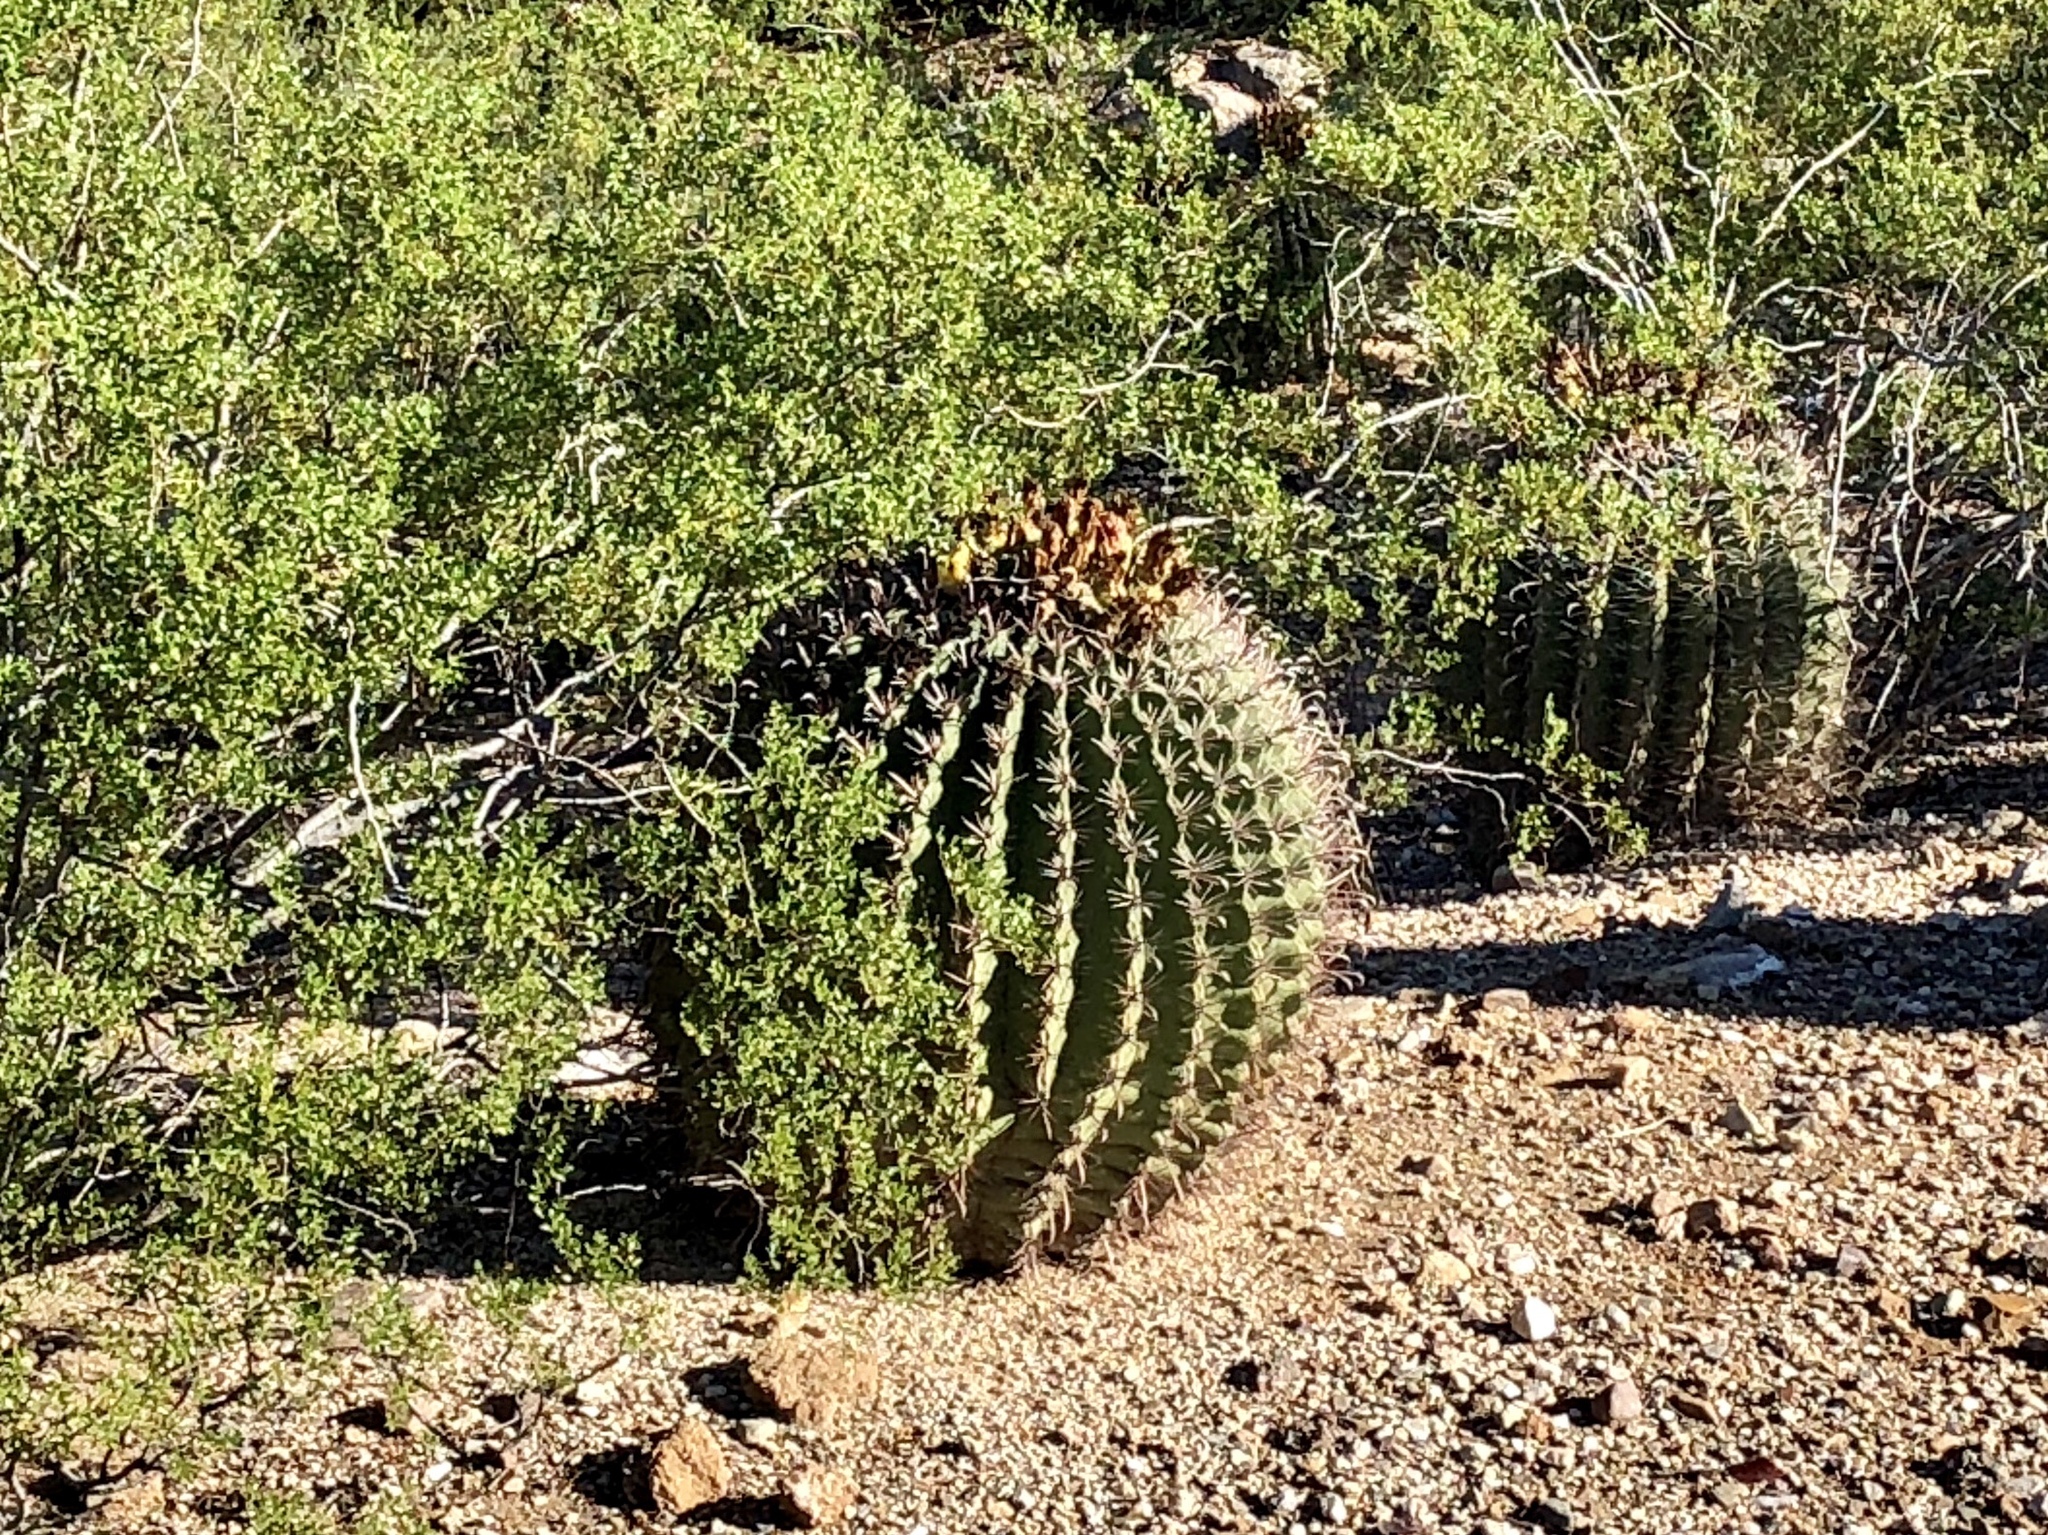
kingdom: Plantae
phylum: Tracheophyta
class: Magnoliopsida
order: Caryophyllales
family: Cactaceae
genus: Ferocactus
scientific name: Ferocactus wislizeni
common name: Candy barrel cactus
